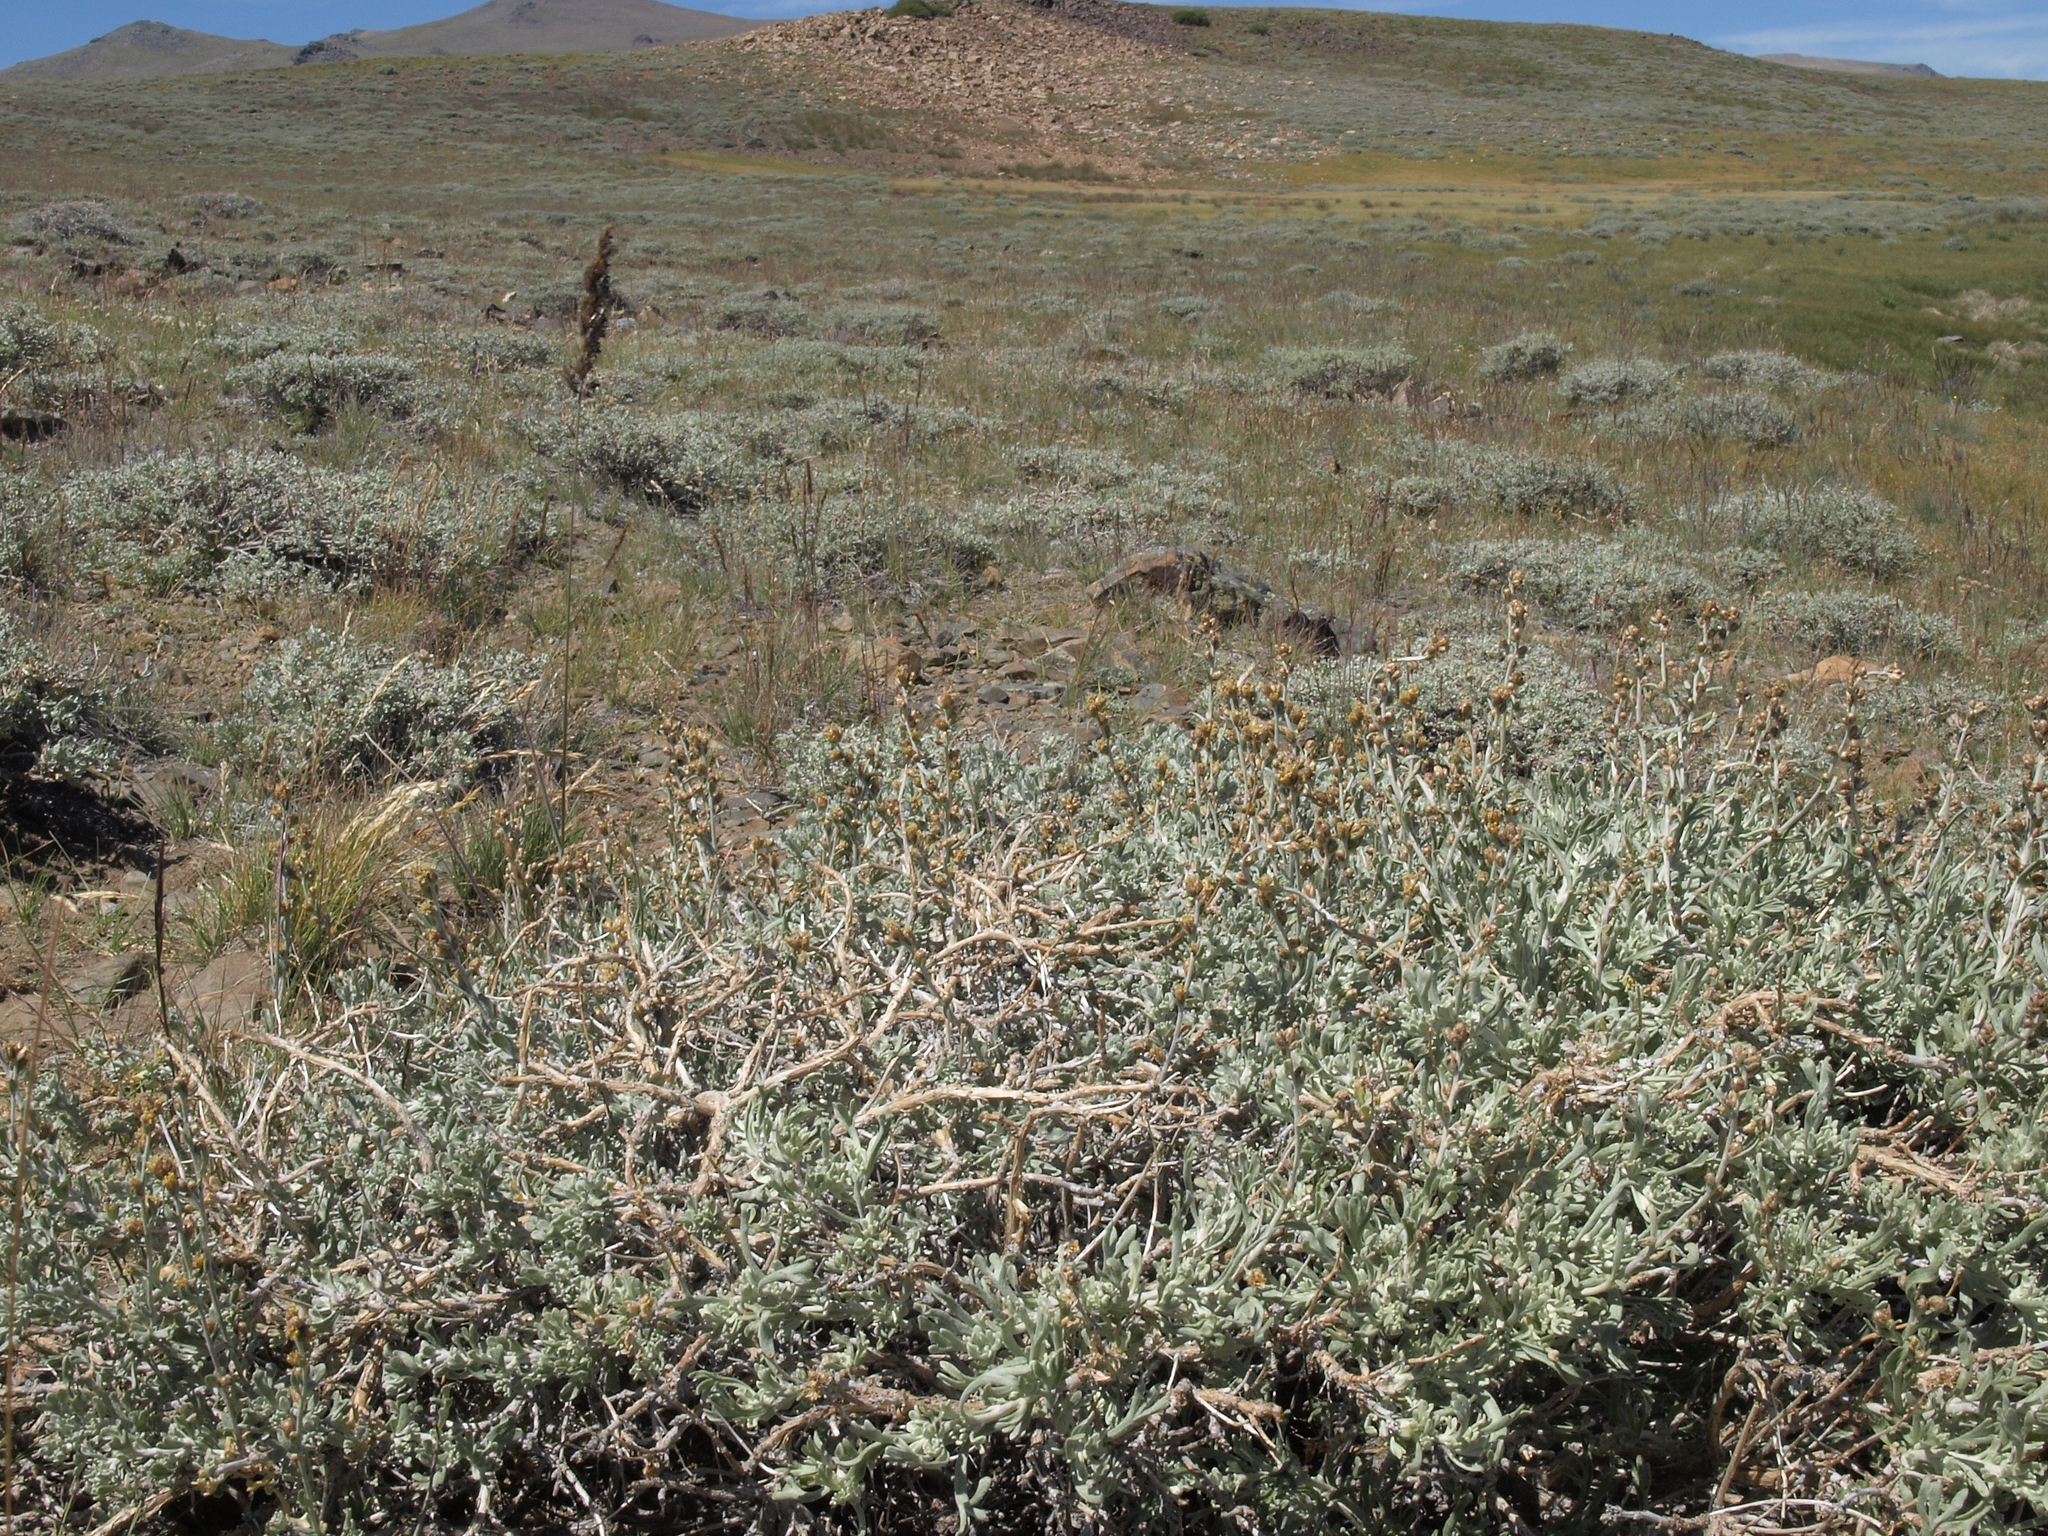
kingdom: Plantae
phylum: Tracheophyta
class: Magnoliopsida
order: Asterales
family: Asteraceae
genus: Artemisia
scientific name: Artemisia rothrockii
